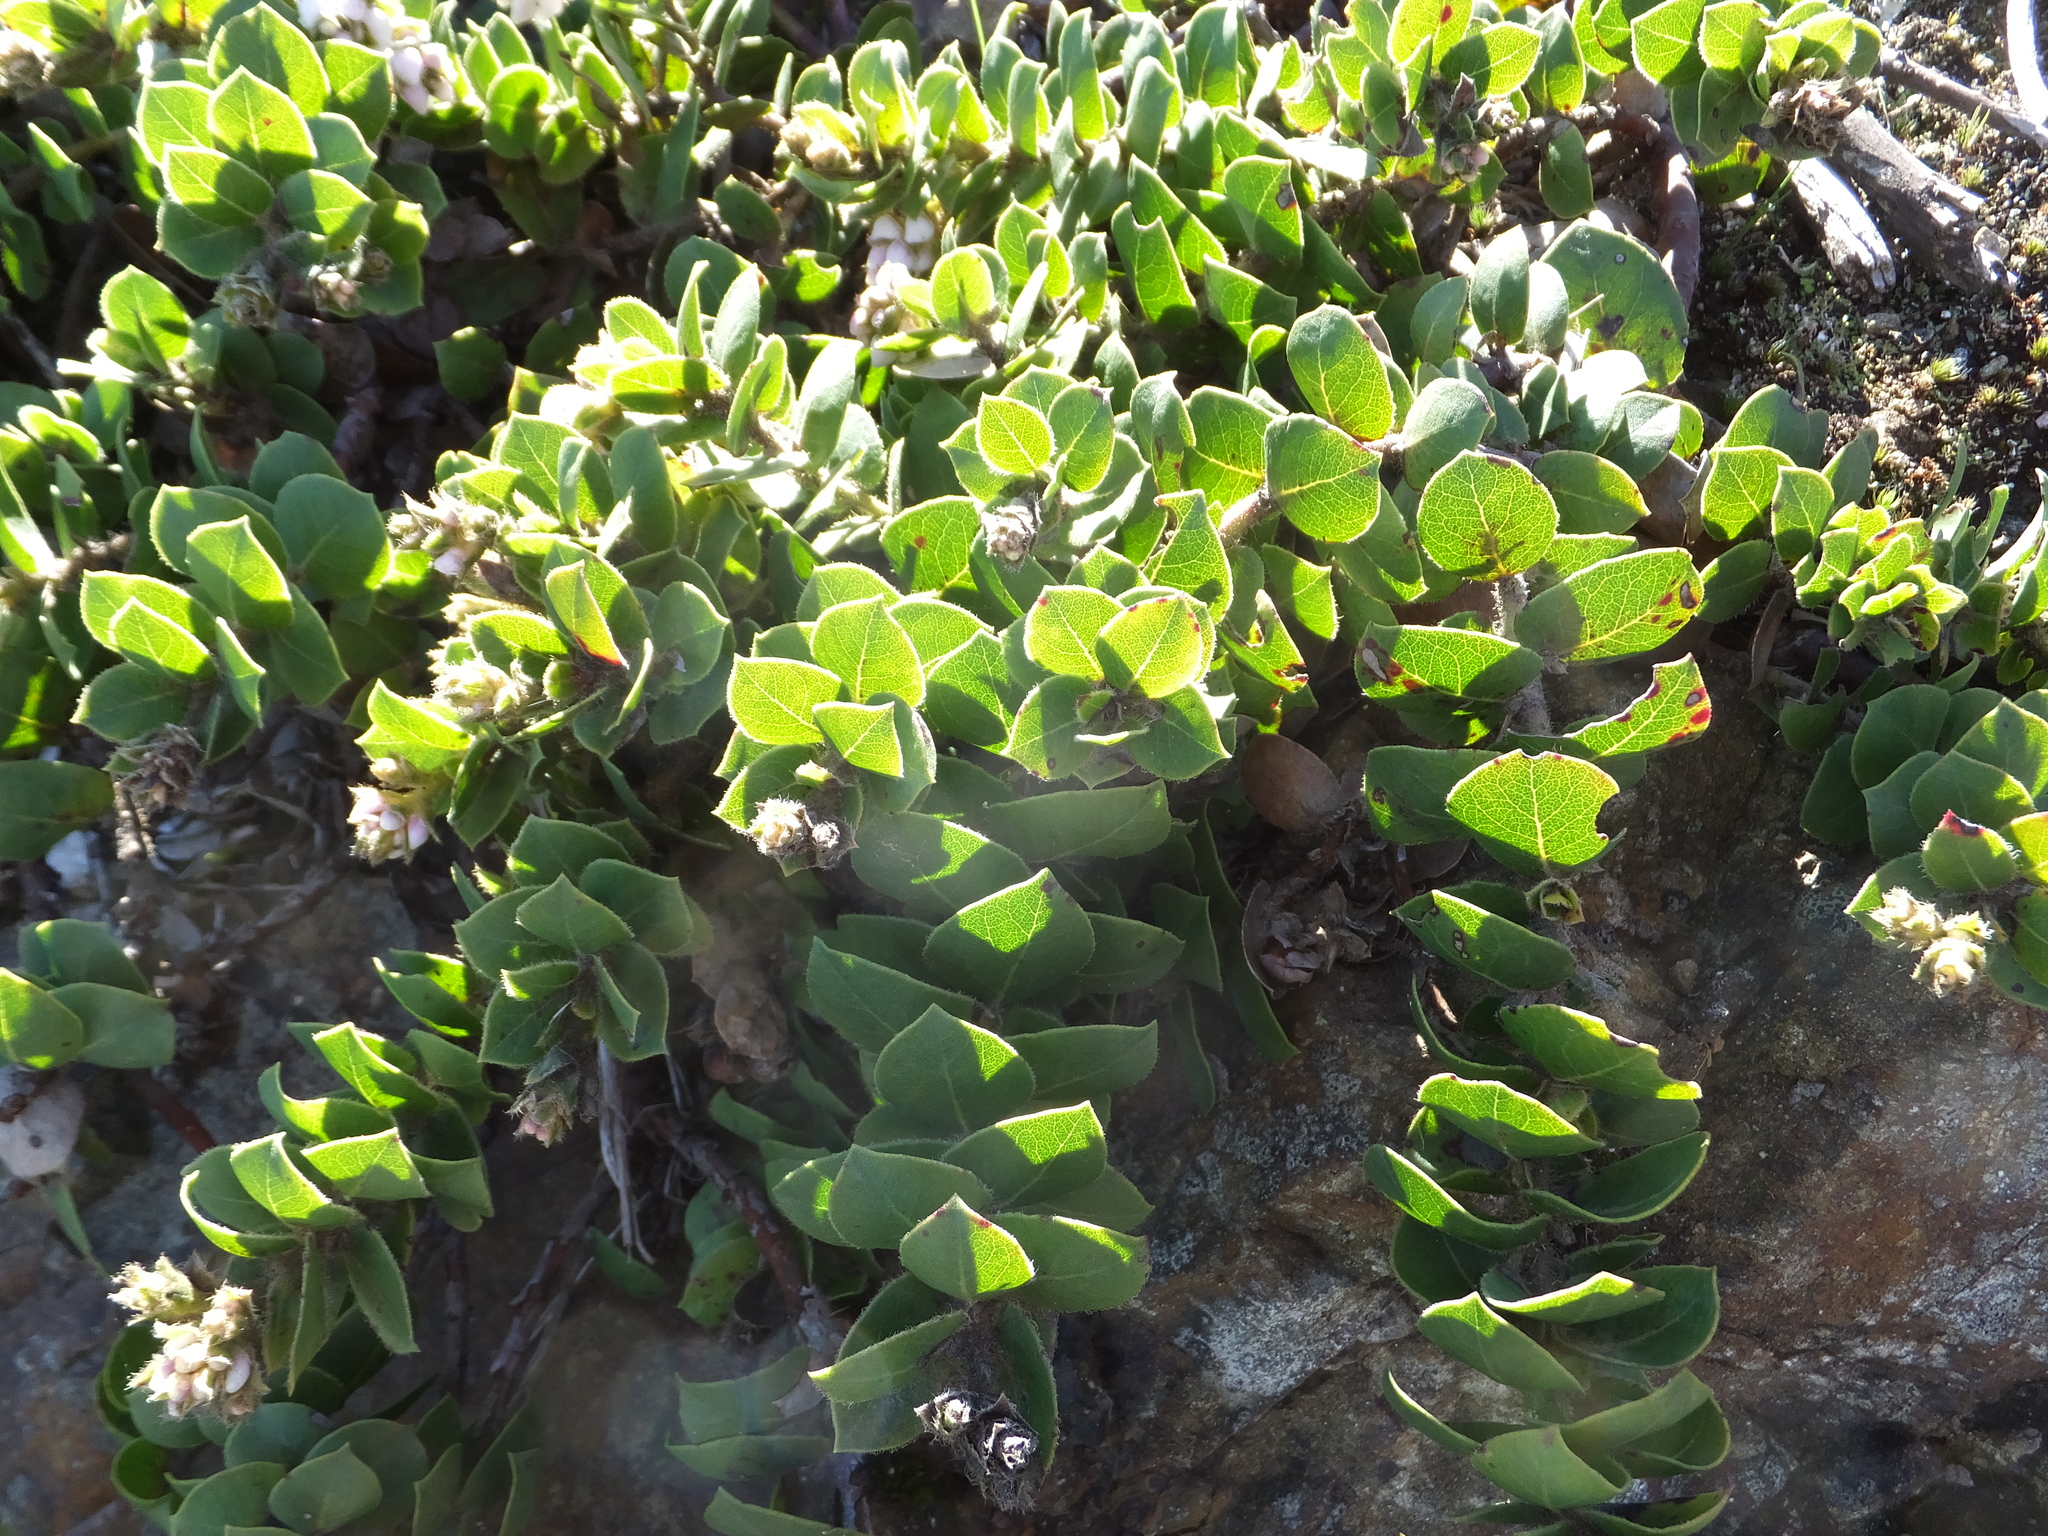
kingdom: Plantae
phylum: Tracheophyta
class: Magnoliopsida
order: Ericales
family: Ericaceae
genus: Arctostaphylos
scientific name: Arctostaphylos imbricata
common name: San bruno mountain manzanita
